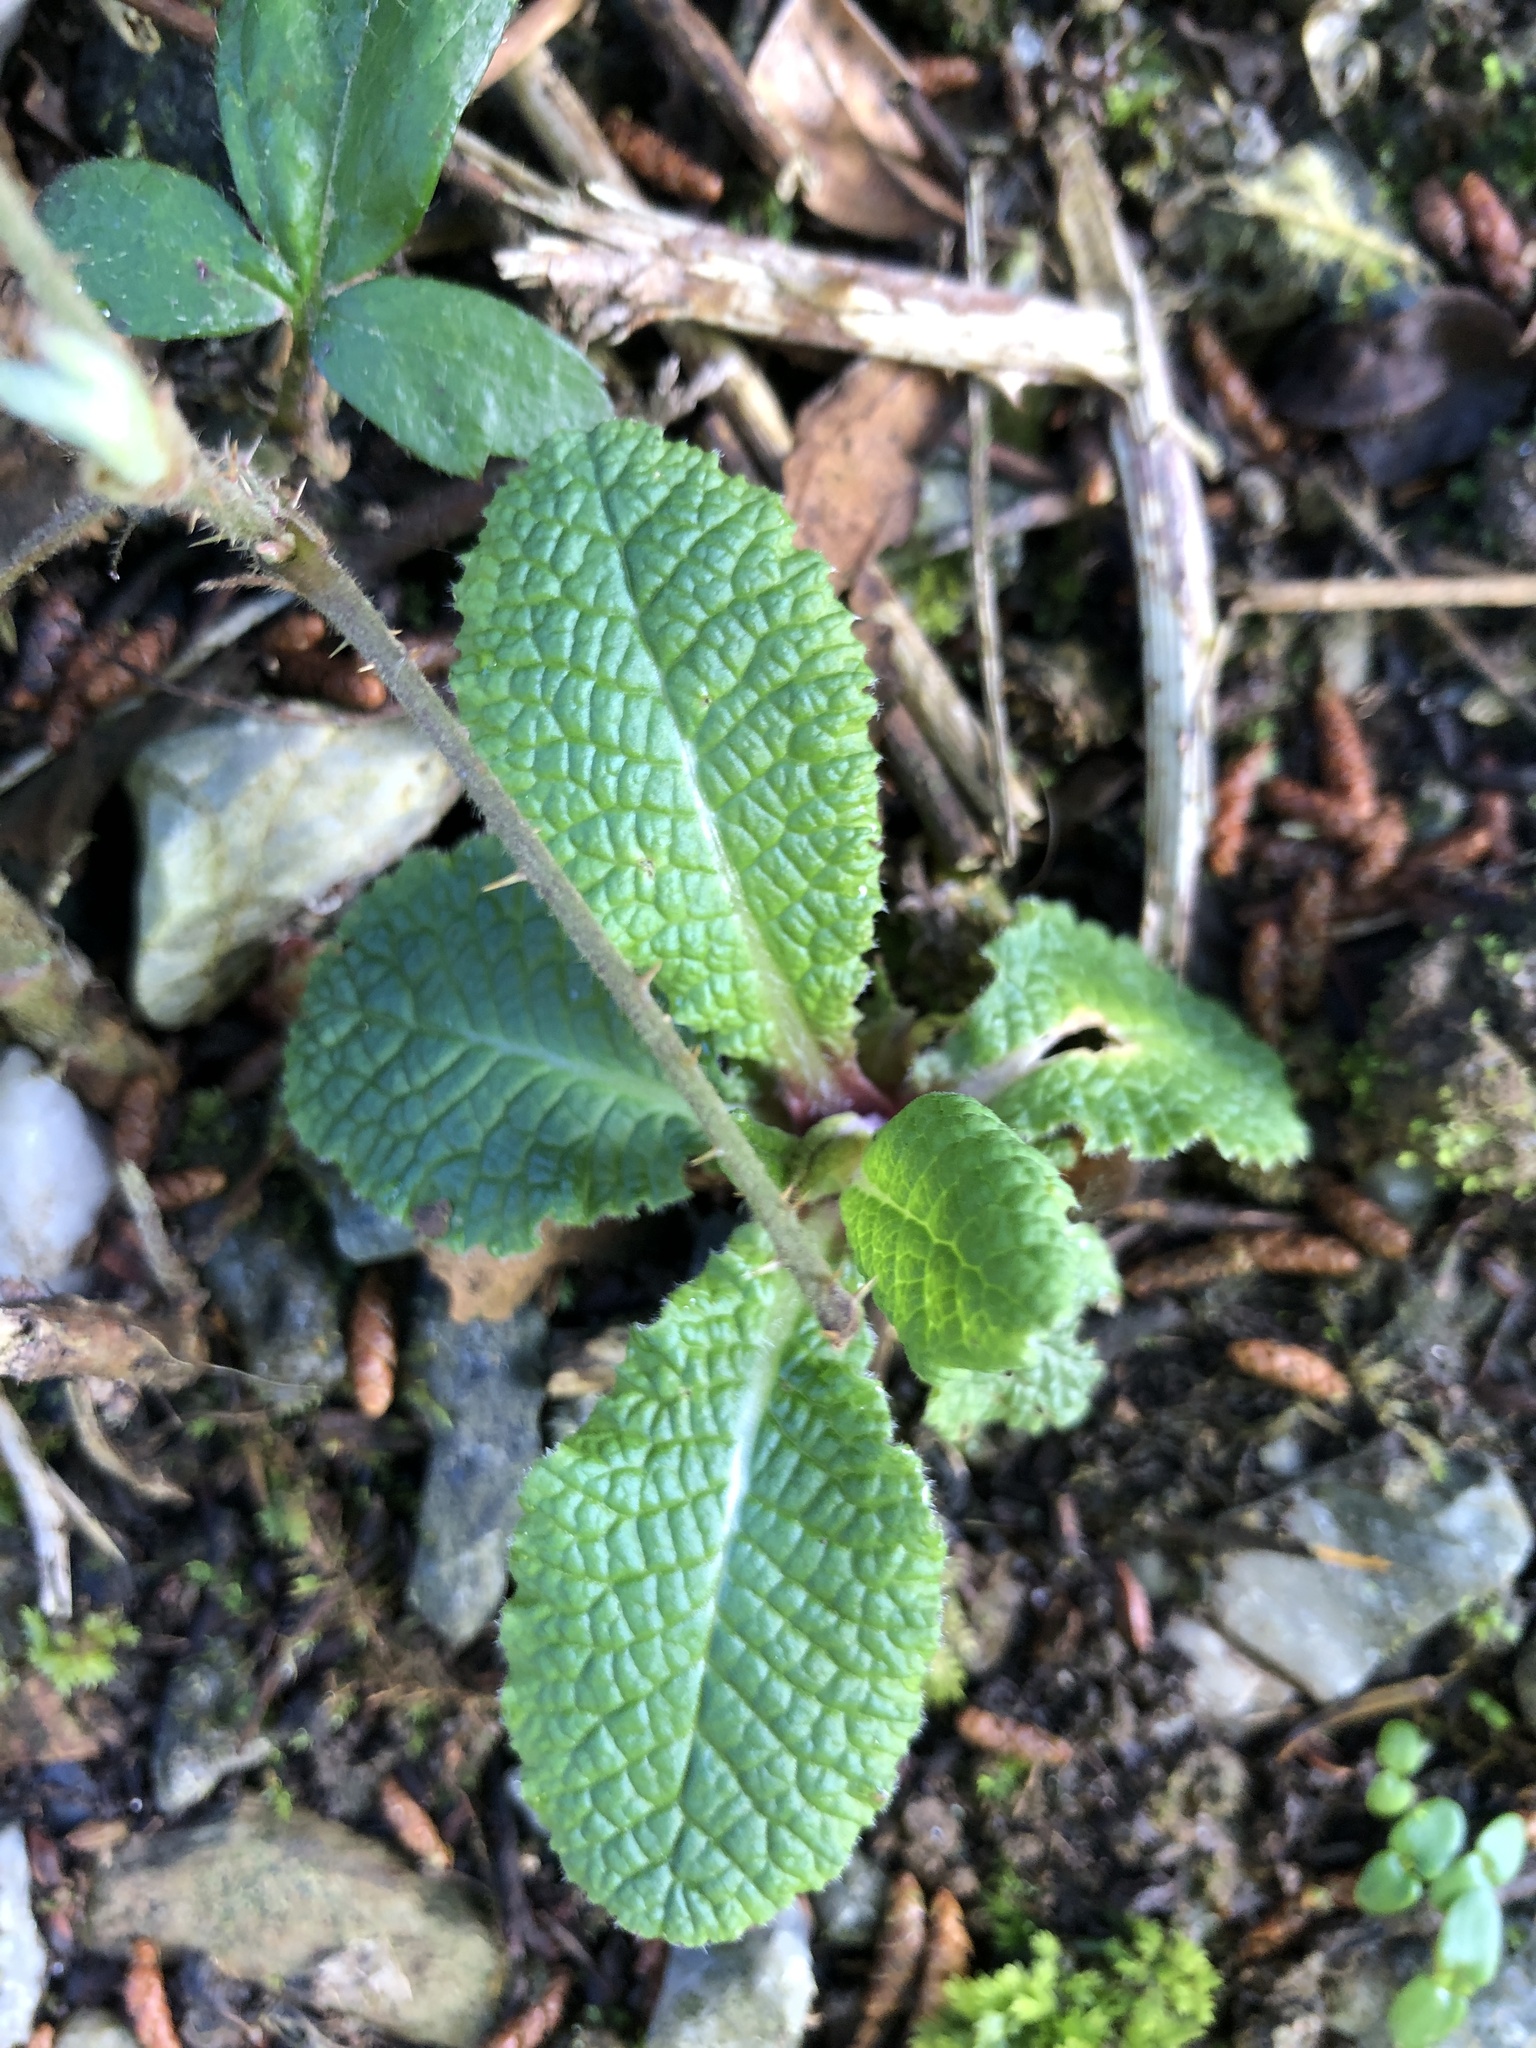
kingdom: Plantae
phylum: Tracheophyta
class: Magnoliopsida
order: Ericales
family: Primulaceae
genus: Primula
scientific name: Primula vulgaris
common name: Primrose
